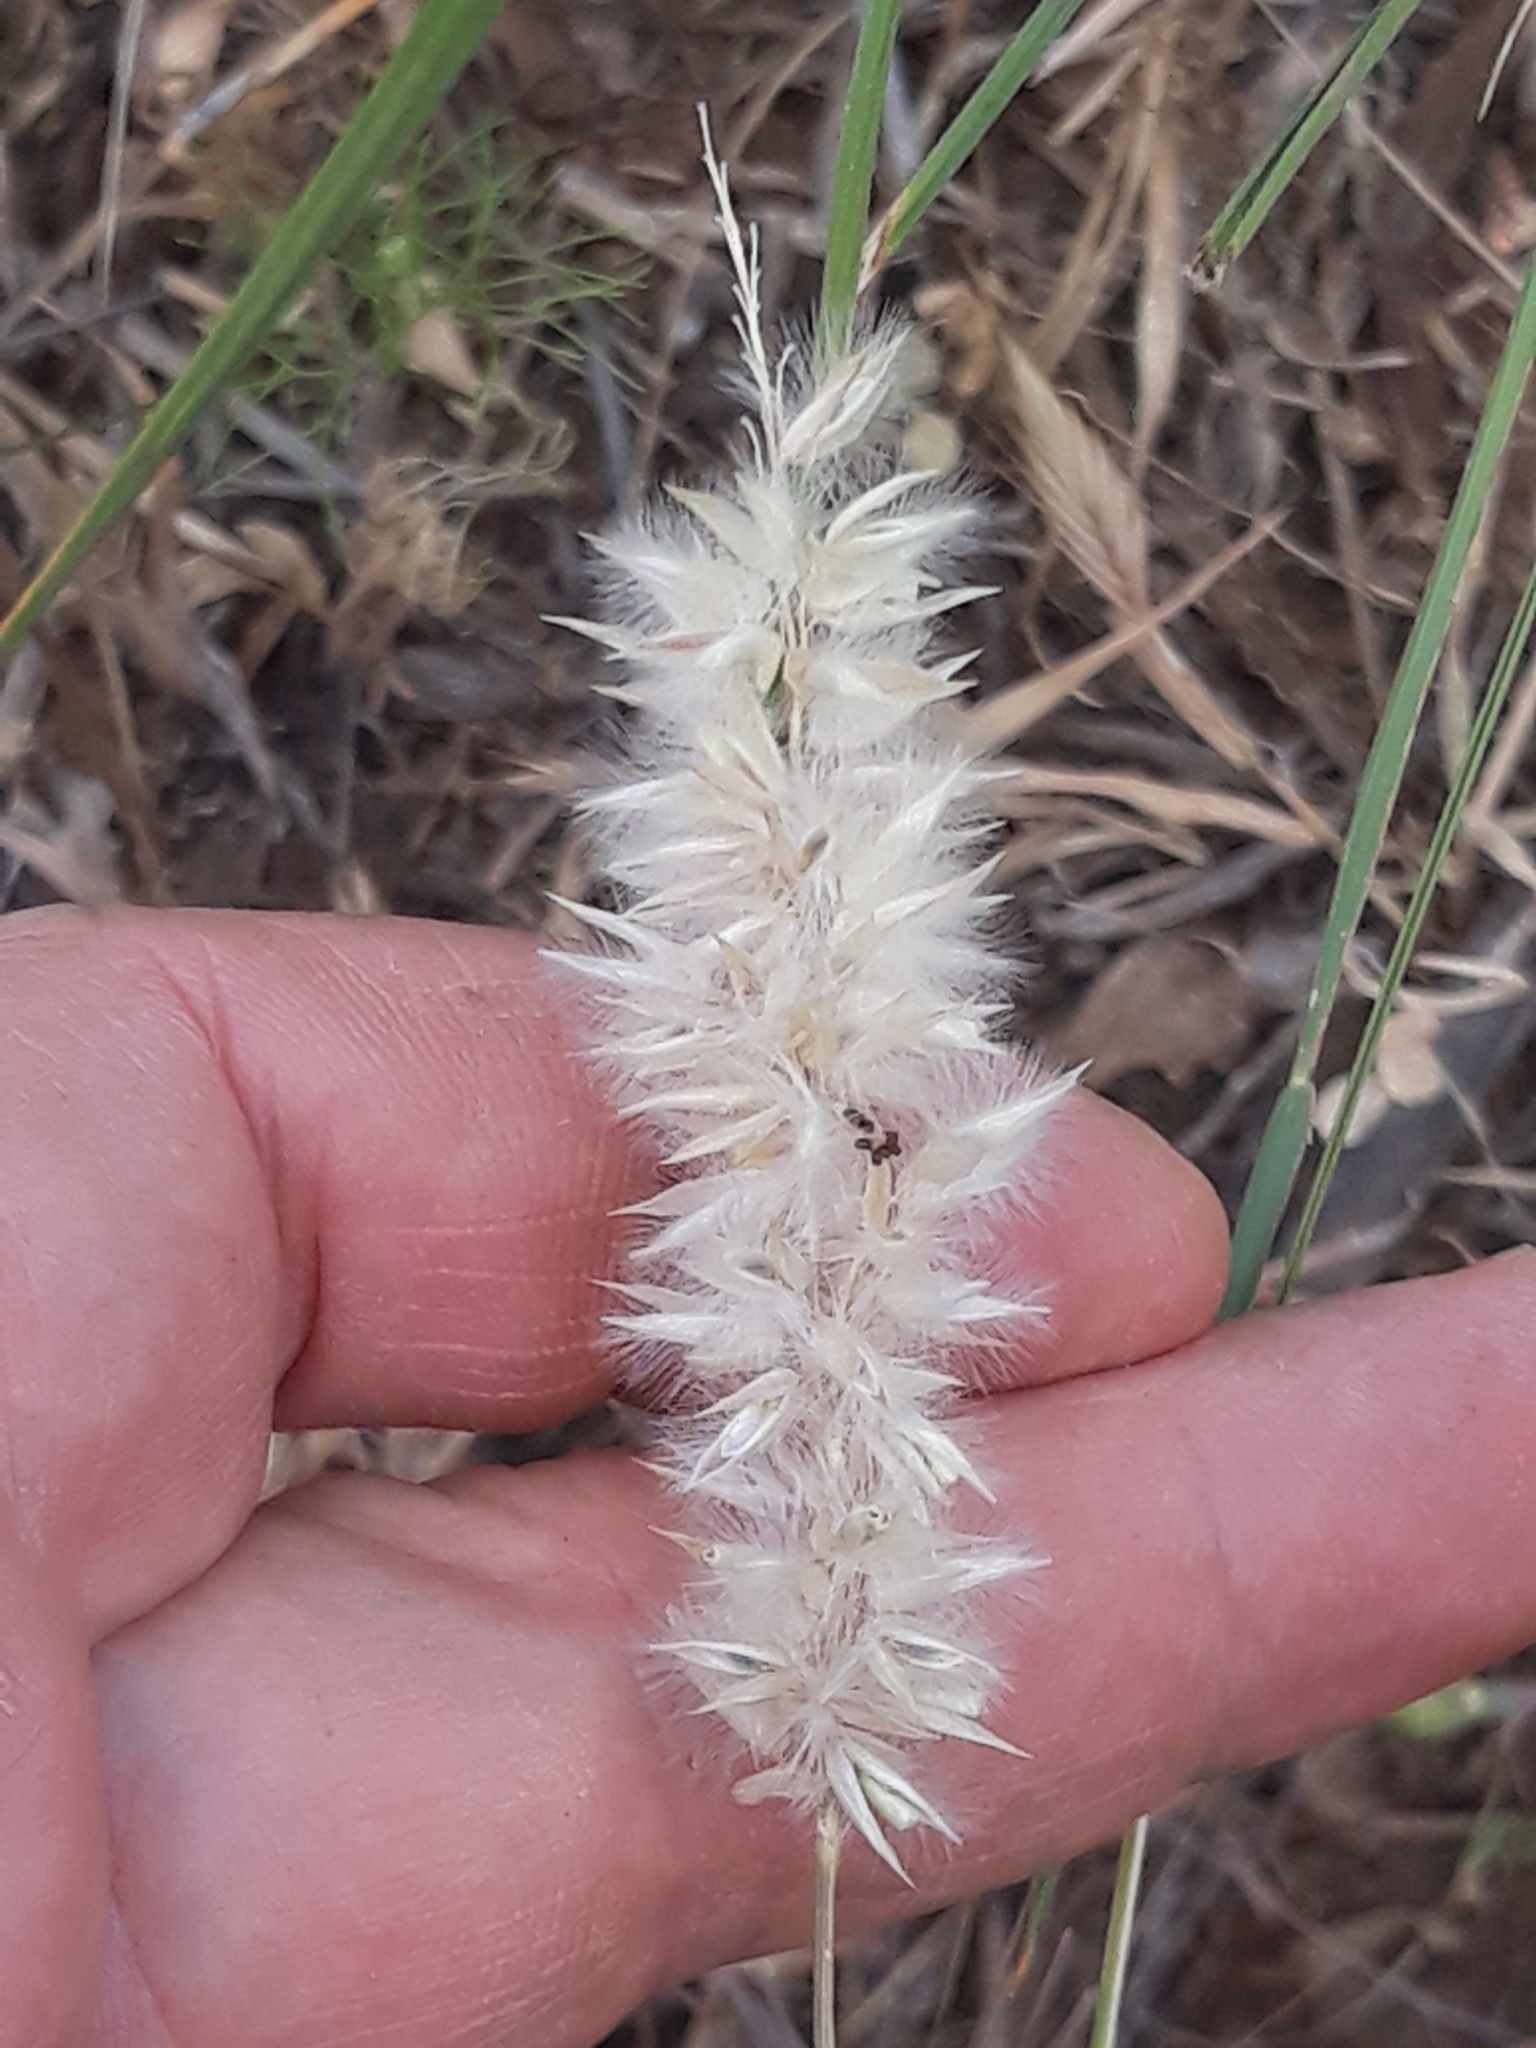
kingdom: Plantae
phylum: Tracheophyta
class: Liliopsida
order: Poales
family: Poaceae
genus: Melica
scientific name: Melica ciliata
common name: Hairy melicgrass
